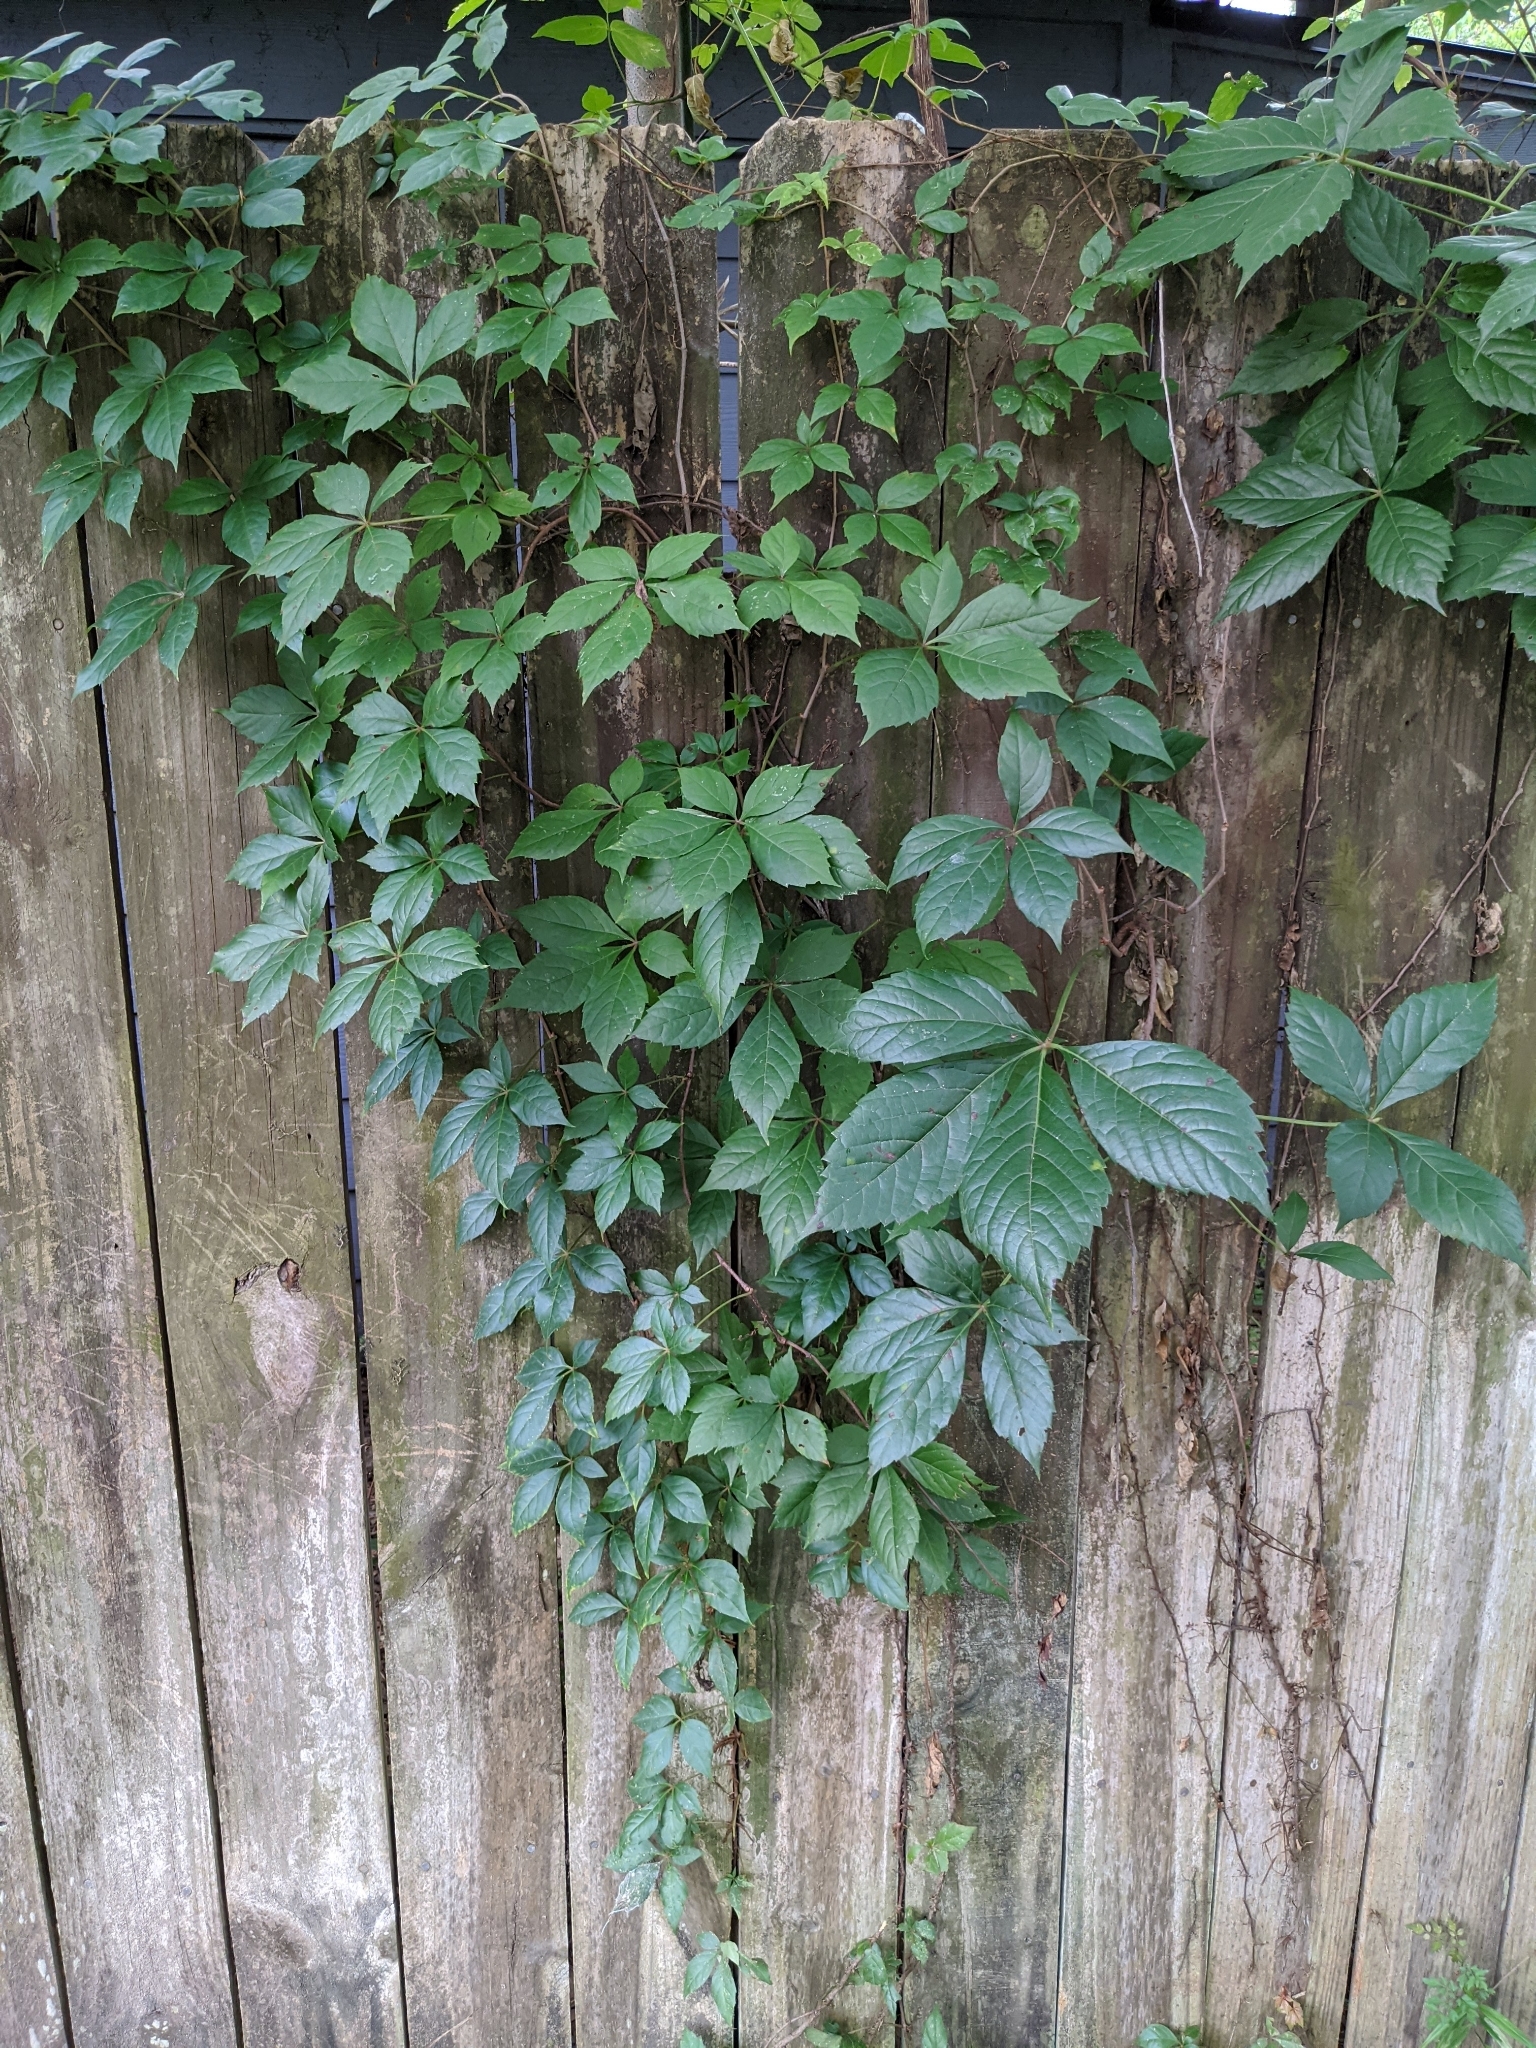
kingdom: Plantae
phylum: Tracheophyta
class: Magnoliopsida
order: Vitales
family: Vitaceae
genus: Parthenocissus
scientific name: Parthenocissus quinquefolia
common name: Virginia-creeper
